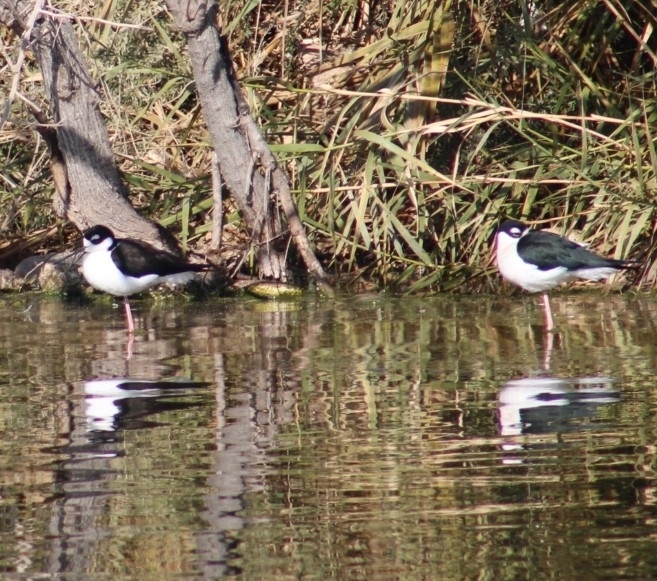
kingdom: Animalia
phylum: Chordata
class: Aves
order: Charadriiformes
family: Recurvirostridae
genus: Himantopus
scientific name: Himantopus mexicanus
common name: Black-necked stilt
